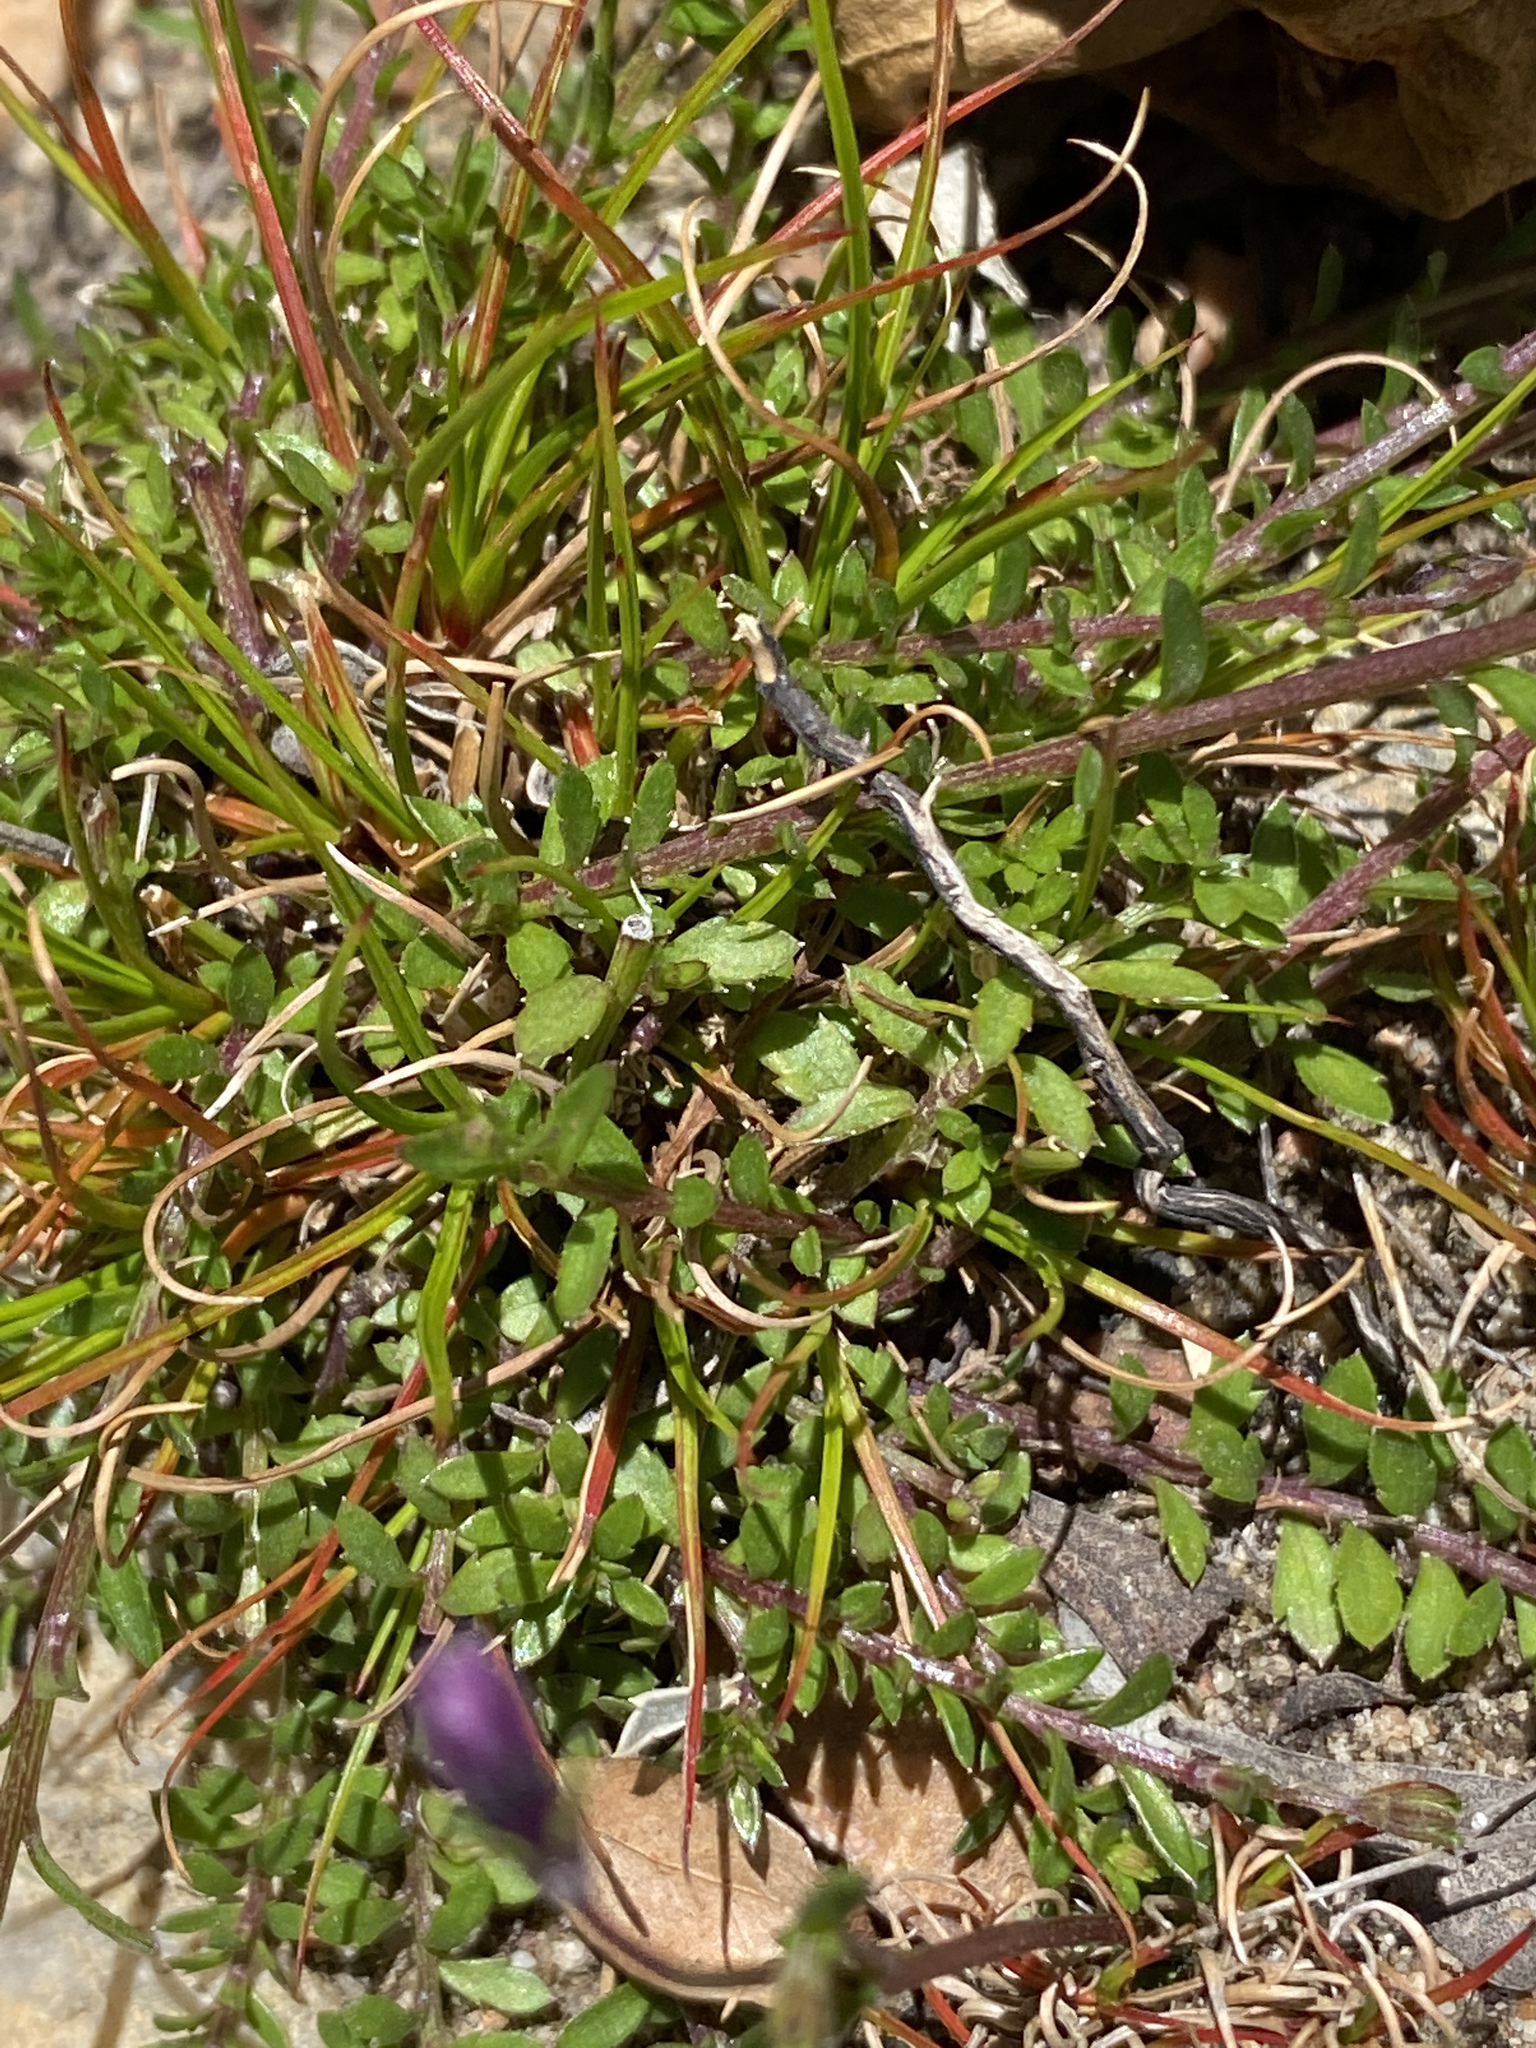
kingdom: Plantae
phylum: Tracheophyta
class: Magnoliopsida
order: Asterales
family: Campanulaceae
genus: Monopsis
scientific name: Monopsis unidentata
